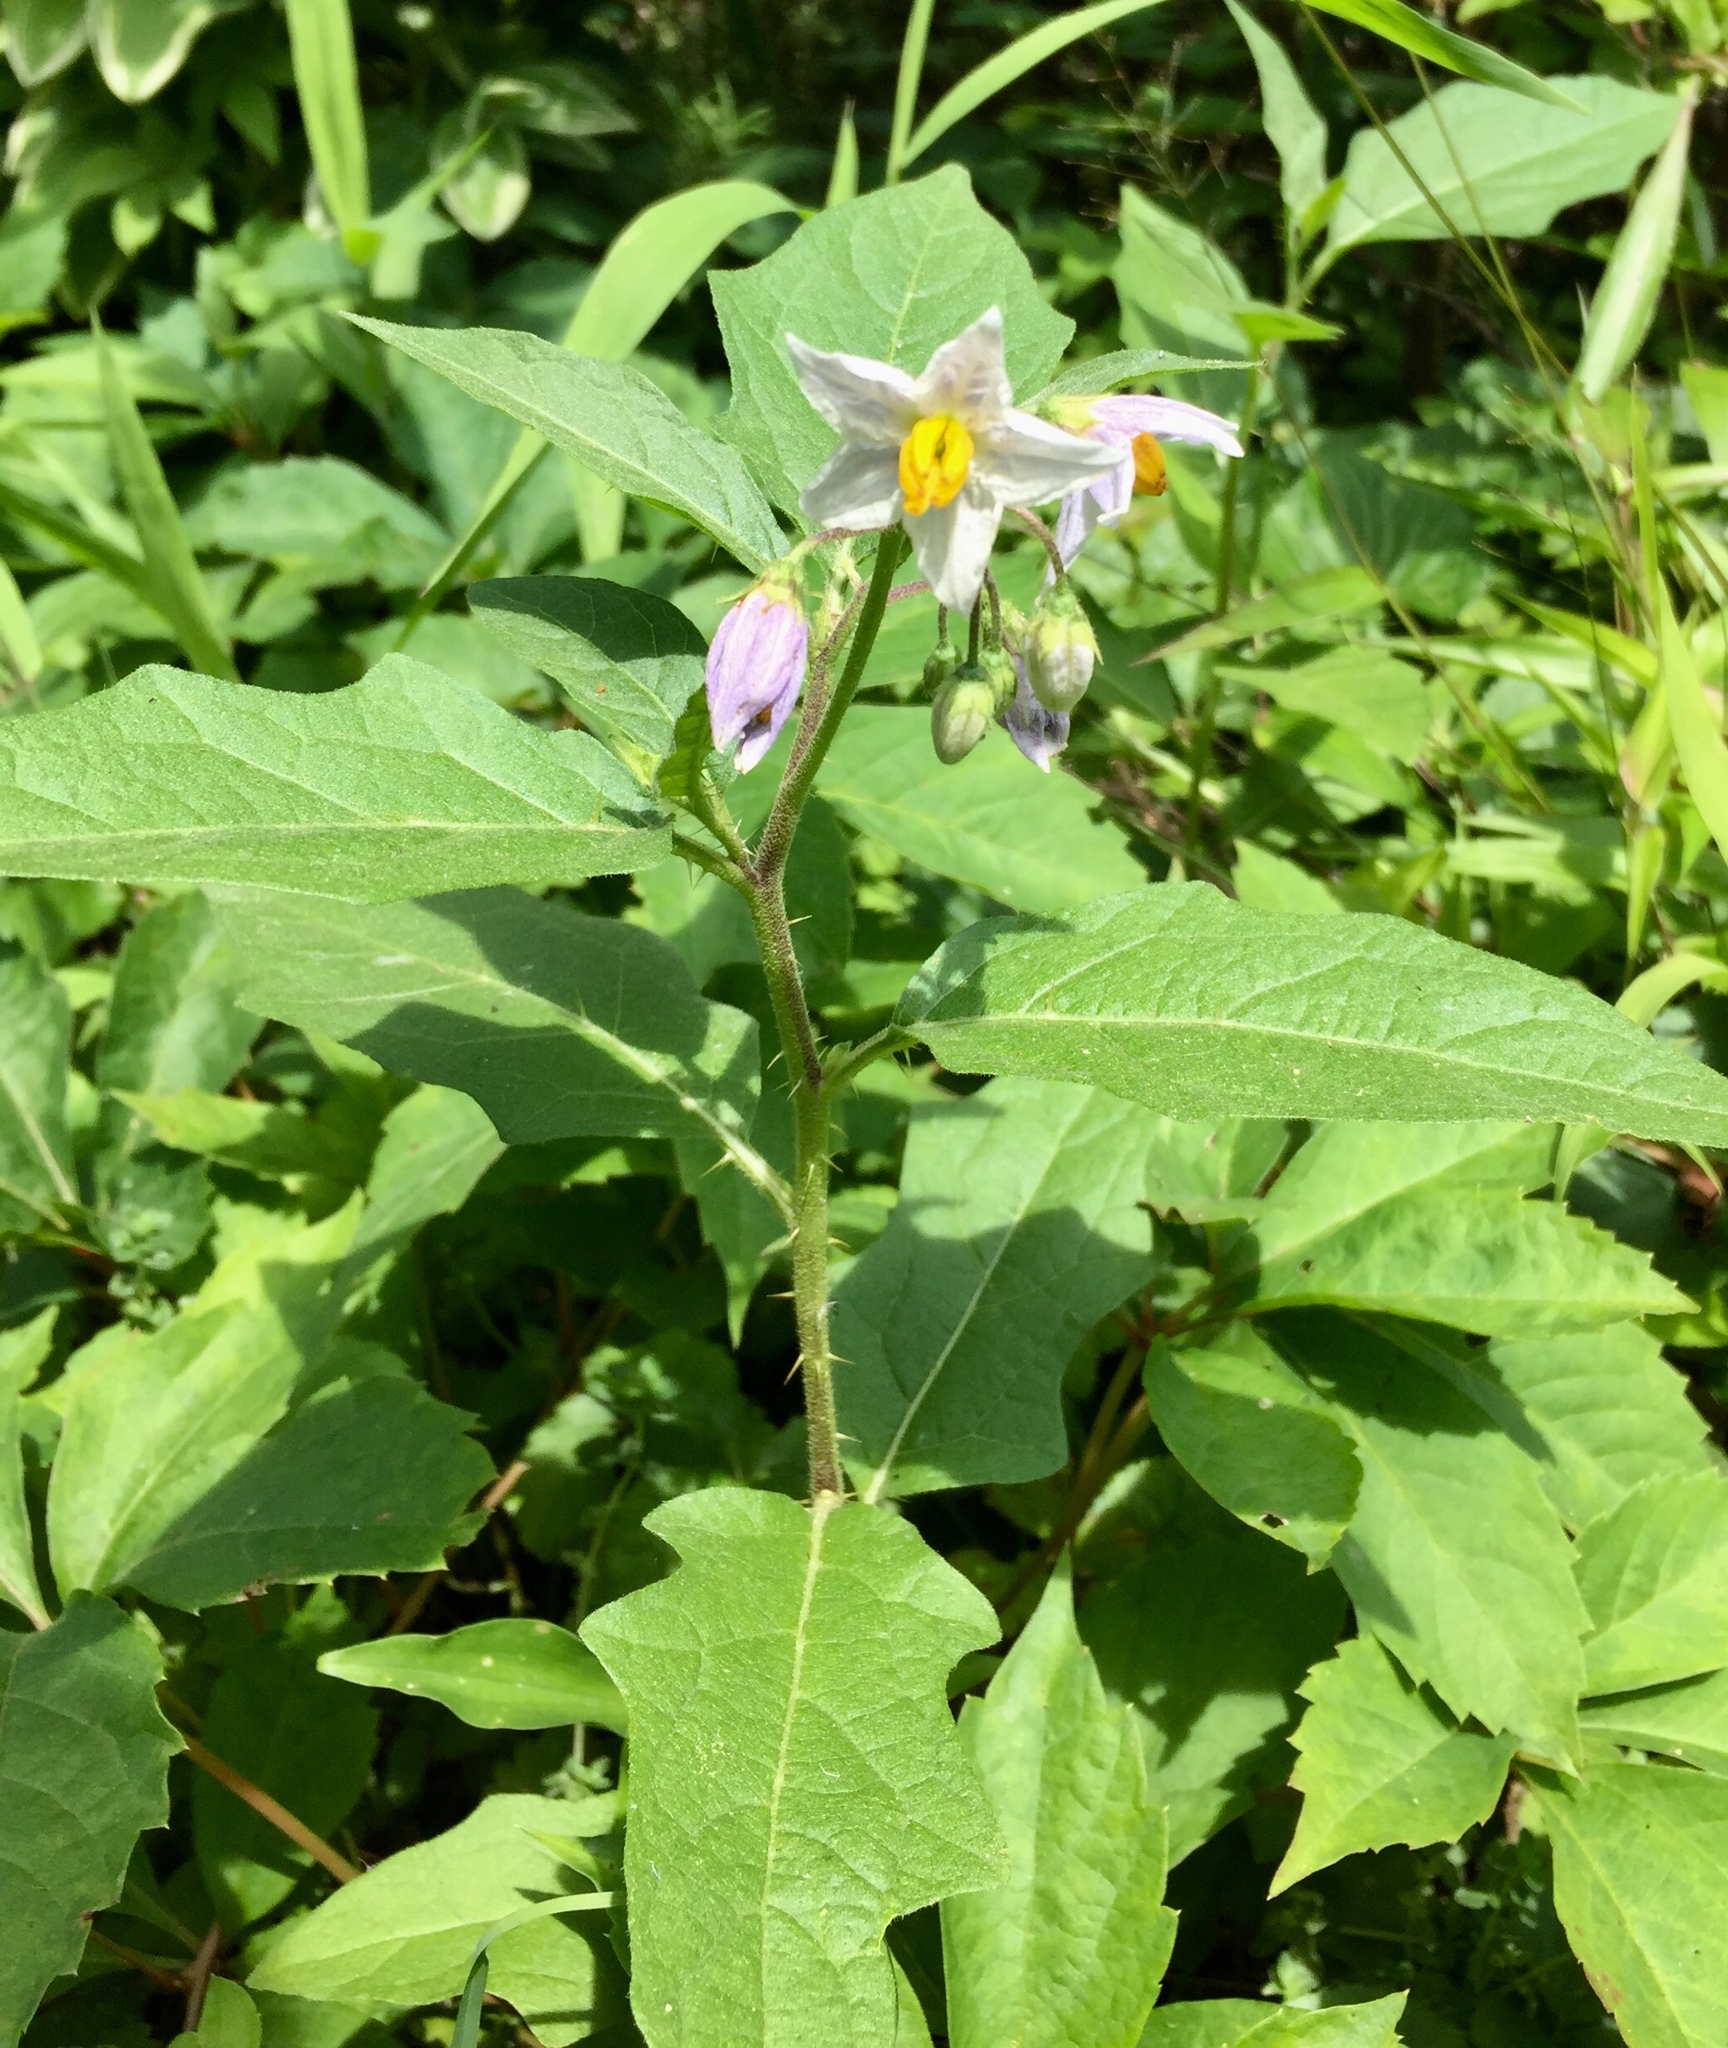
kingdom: Plantae
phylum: Tracheophyta
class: Magnoliopsida
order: Solanales
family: Solanaceae
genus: Solanum
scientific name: Solanum carolinense
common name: Horse-nettle
